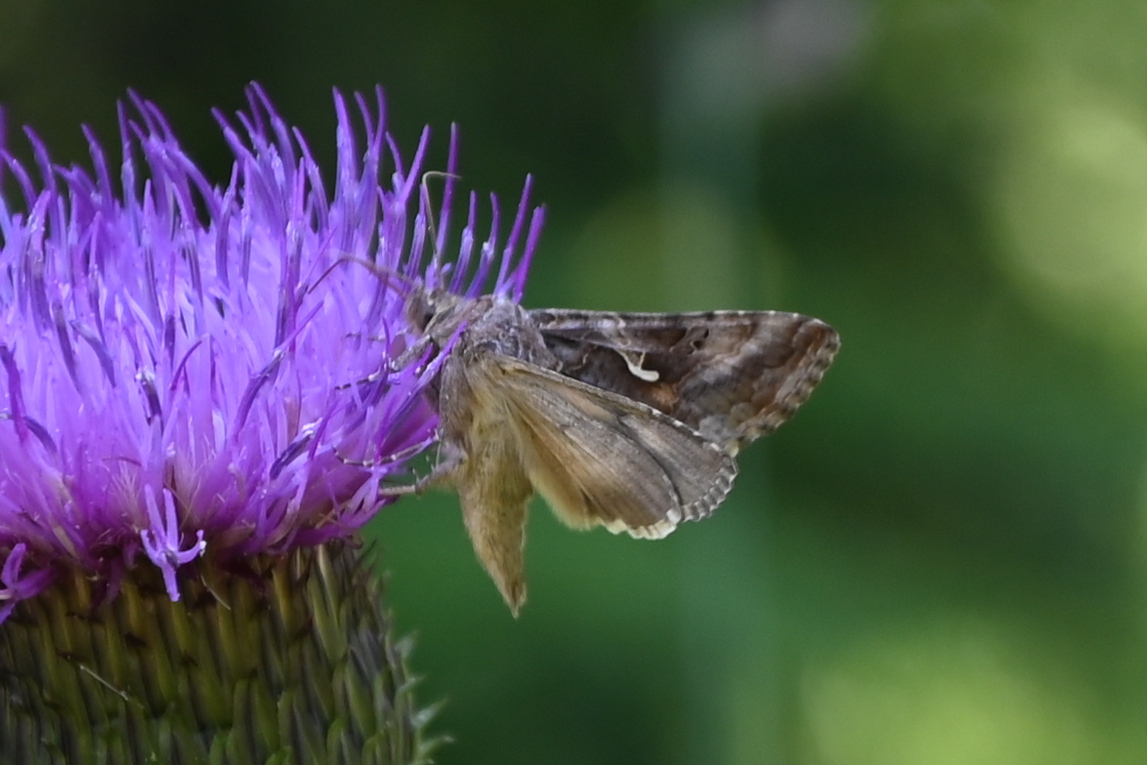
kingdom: Animalia
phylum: Arthropoda
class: Insecta
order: Lepidoptera
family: Noctuidae
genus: Autographa
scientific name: Autographa gamma
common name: Silver y
